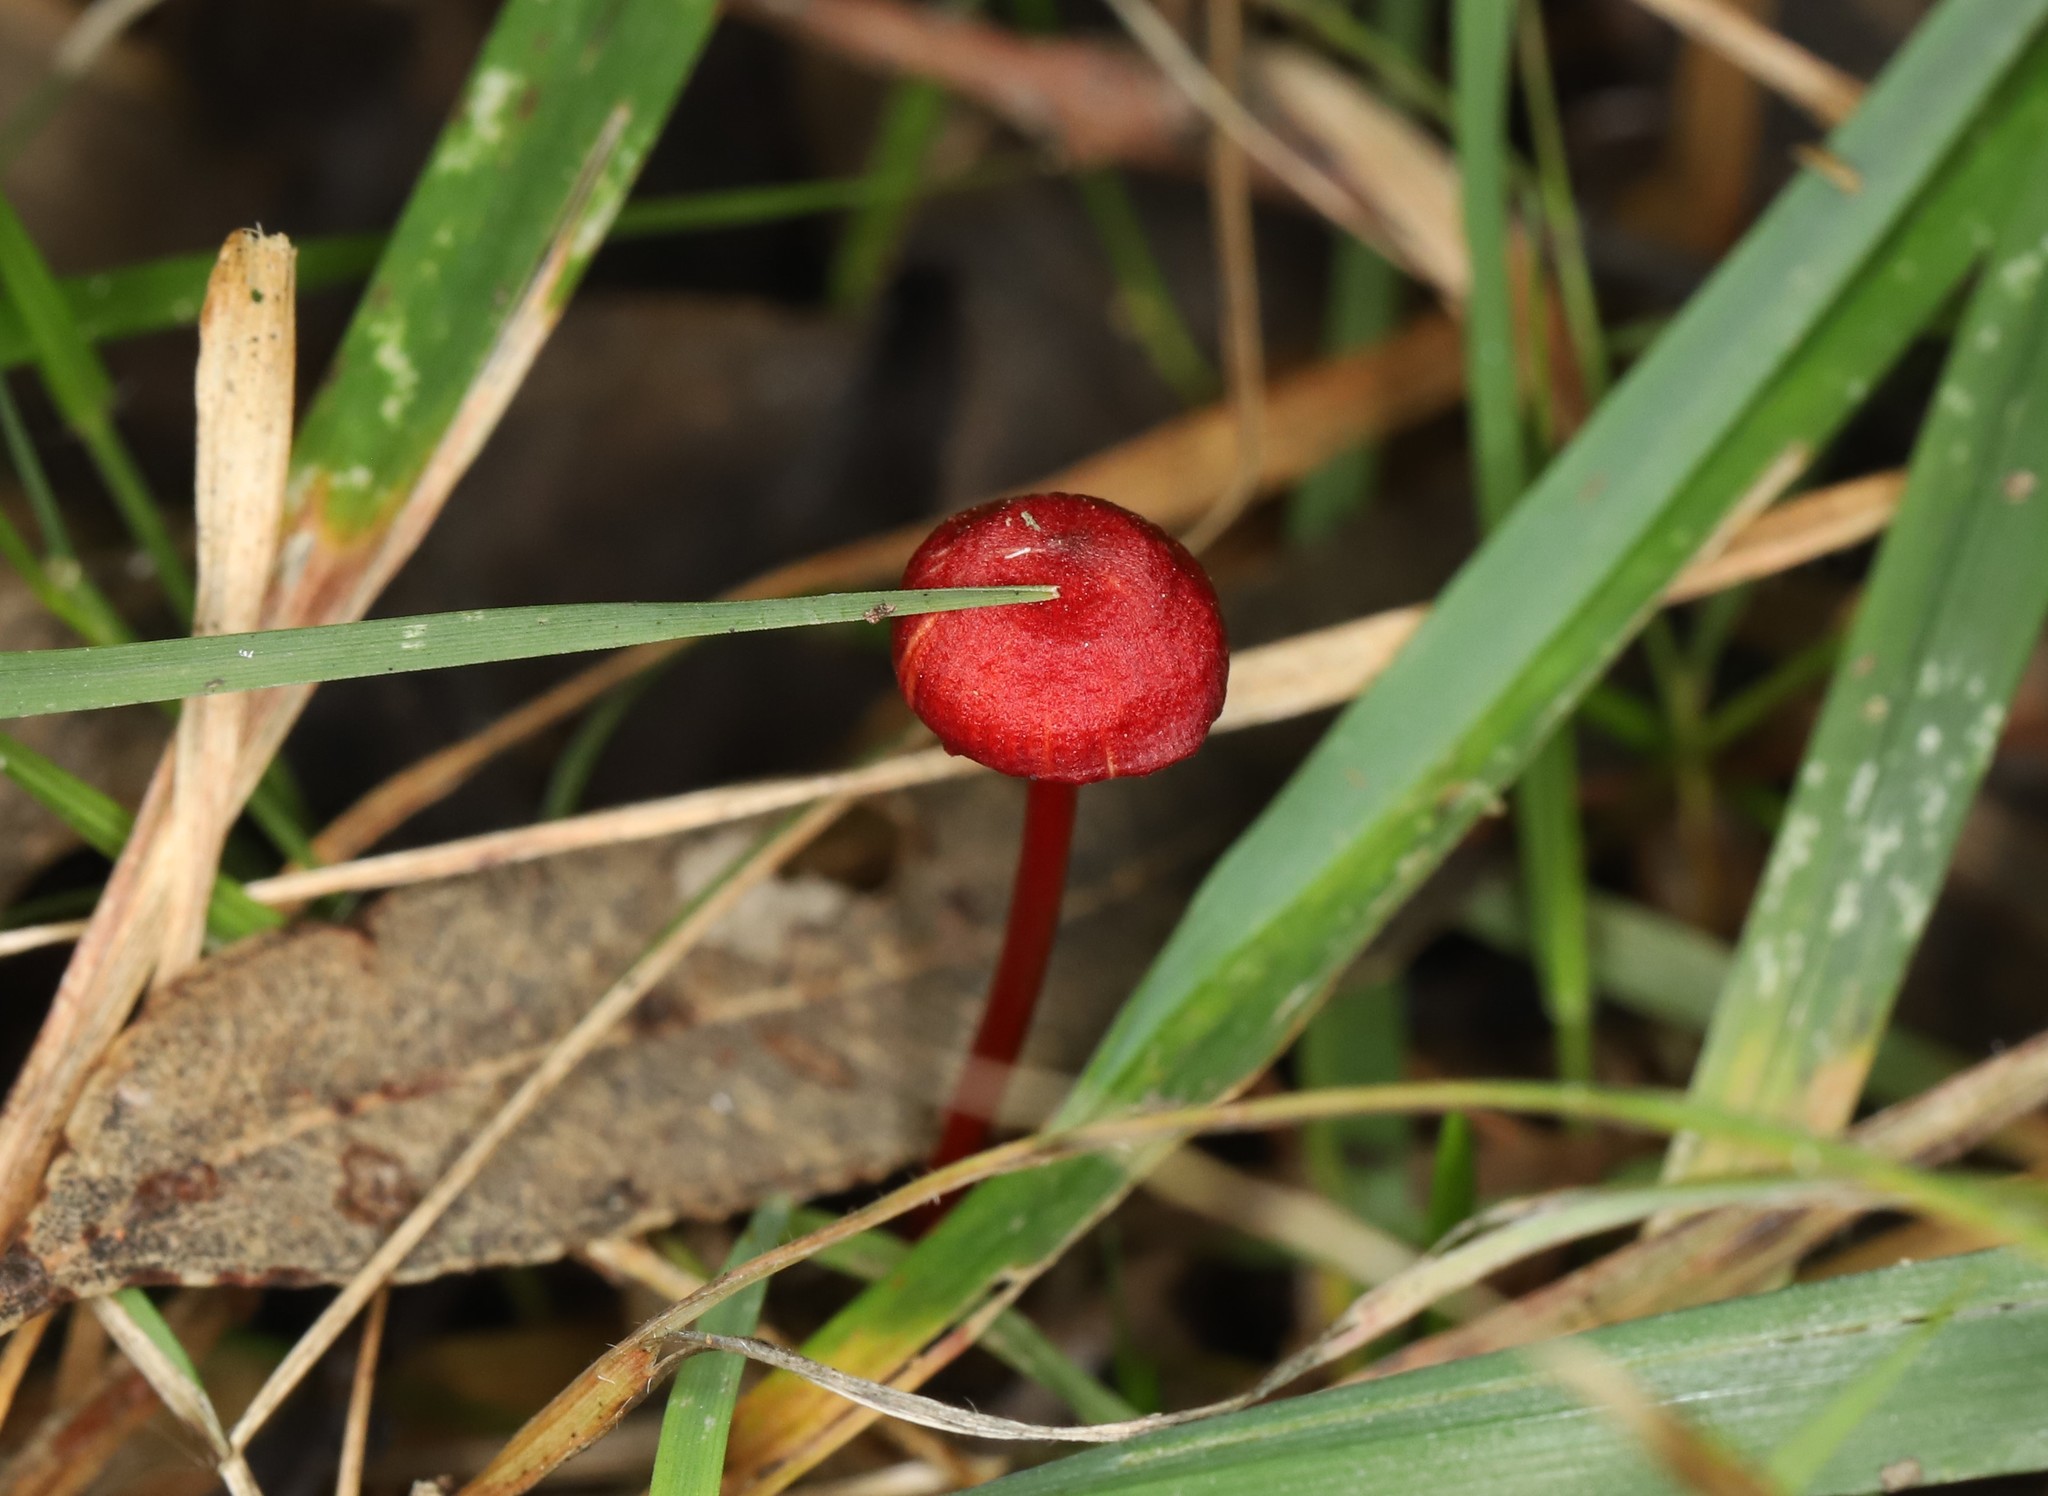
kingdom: Fungi
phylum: Basidiomycota
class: Agaricomycetes
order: Agaricales
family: Mycenaceae
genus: Cruentomycena
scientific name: Cruentomycena viscidocruenta
